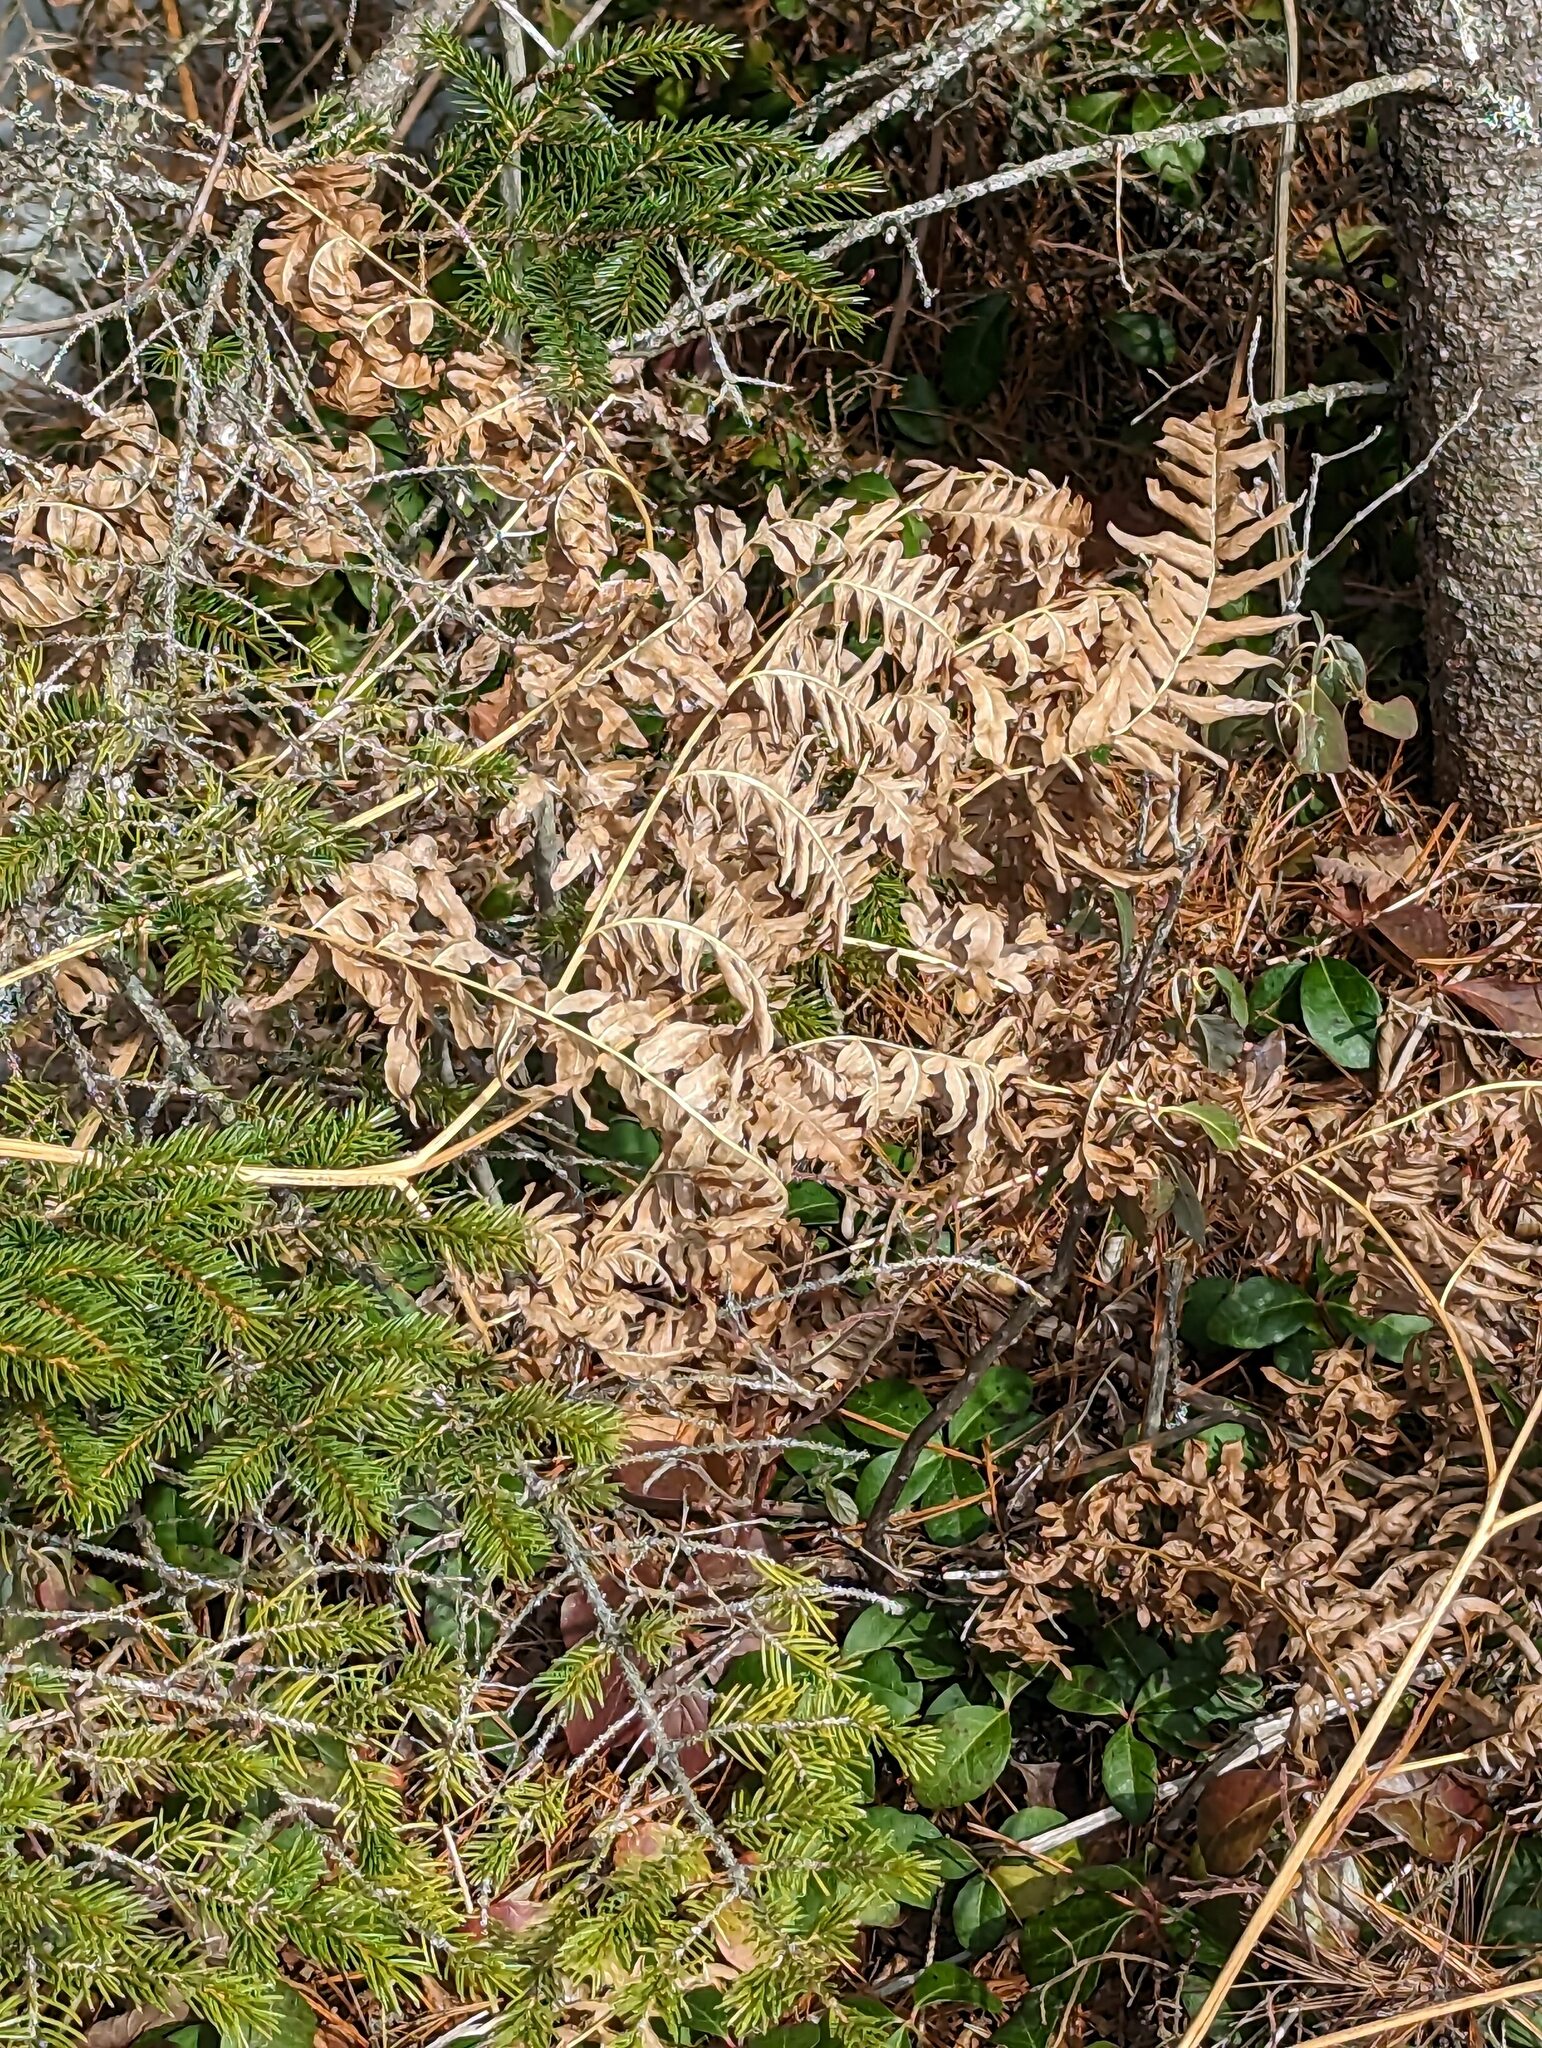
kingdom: Plantae
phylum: Tracheophyta
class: Polypodiopsida
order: Polypodiales
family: Dennstaedtiaceae
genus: Pteridium
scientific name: Pteridium aquilinum
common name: Bracken
